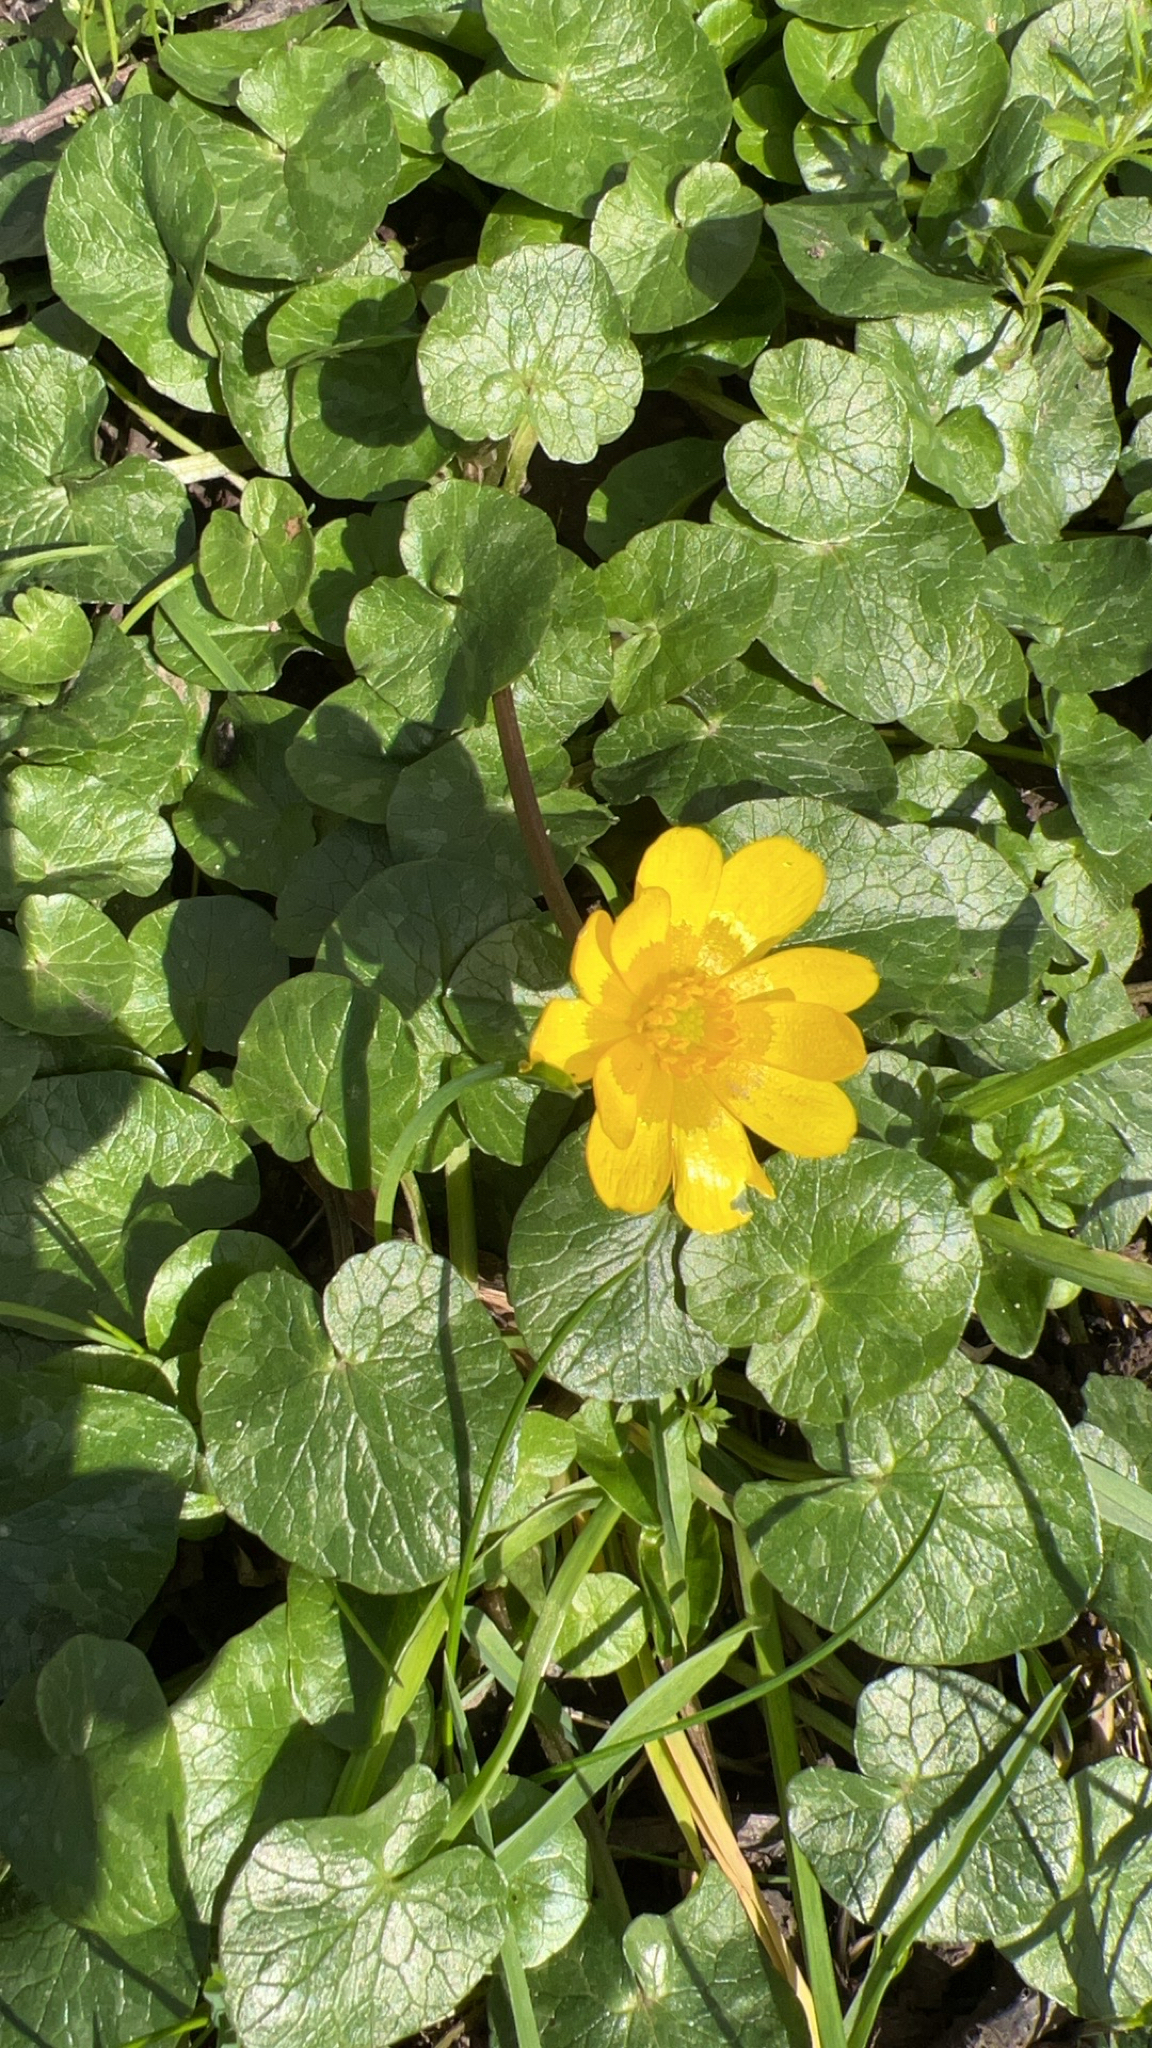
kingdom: Plantae
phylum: Tracheophyta
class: Magnoliopsida
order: Ranunculales
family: Ranunculaceae
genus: Ficaria
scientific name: Ficaria verna
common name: Lesser celandine
